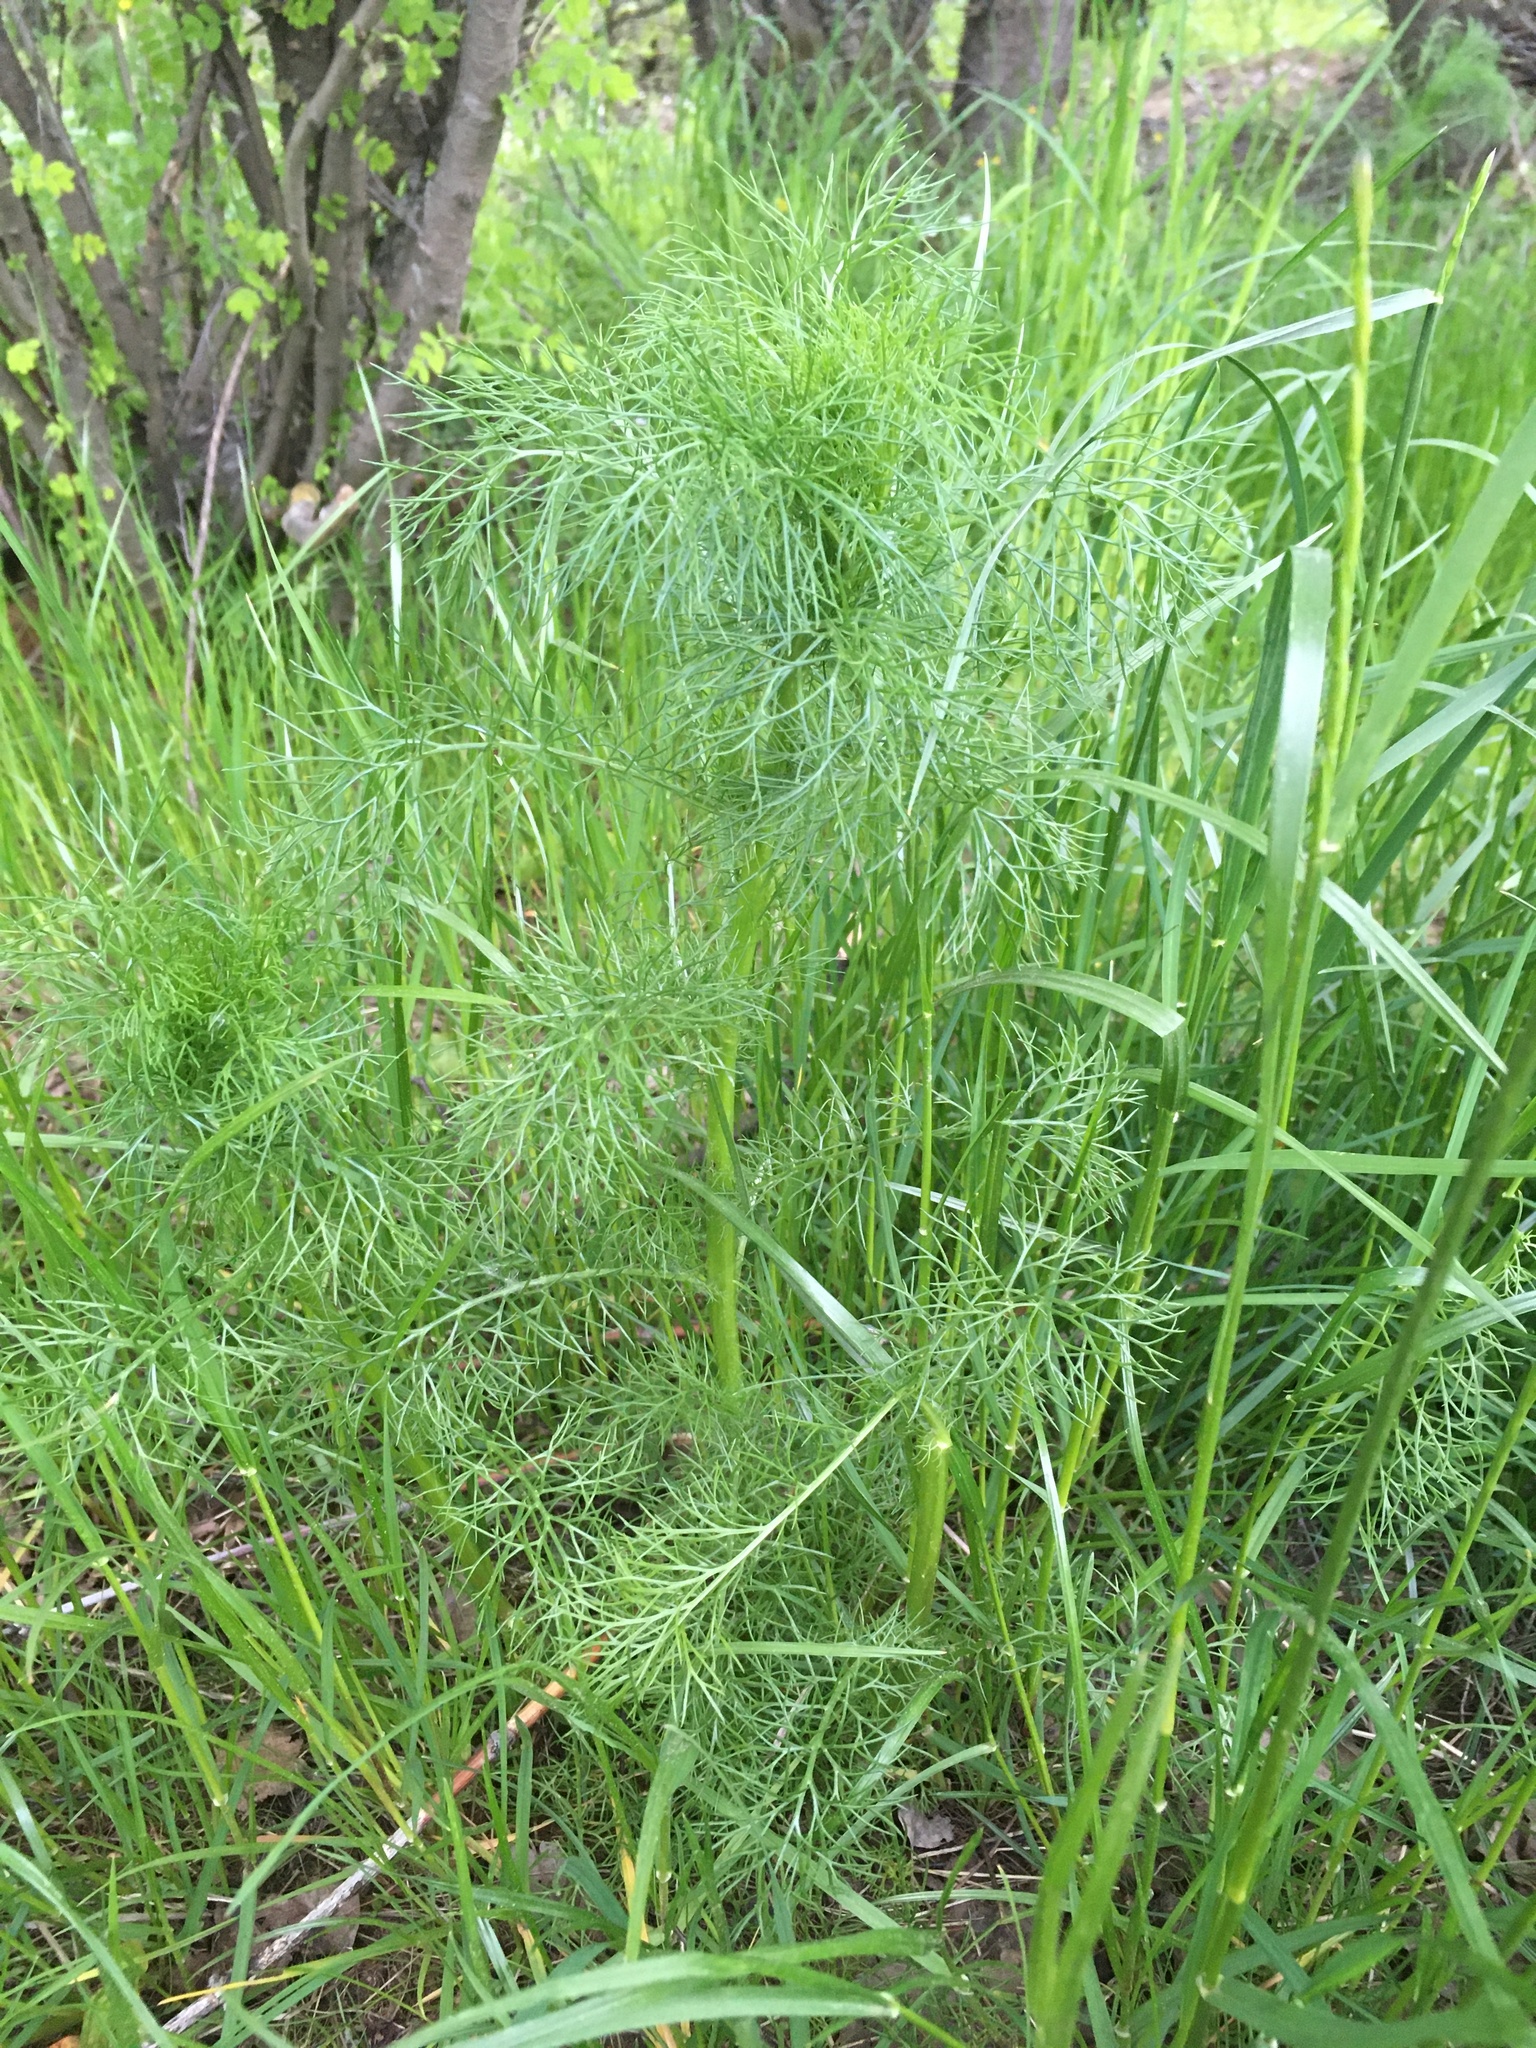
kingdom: Plantae
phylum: Tracheophyta
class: Magnoliopsida
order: Asterales
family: Asteraceae
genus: Tripleurospermum
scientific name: Tripleurospermum inodorum
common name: Scentless mayweed
